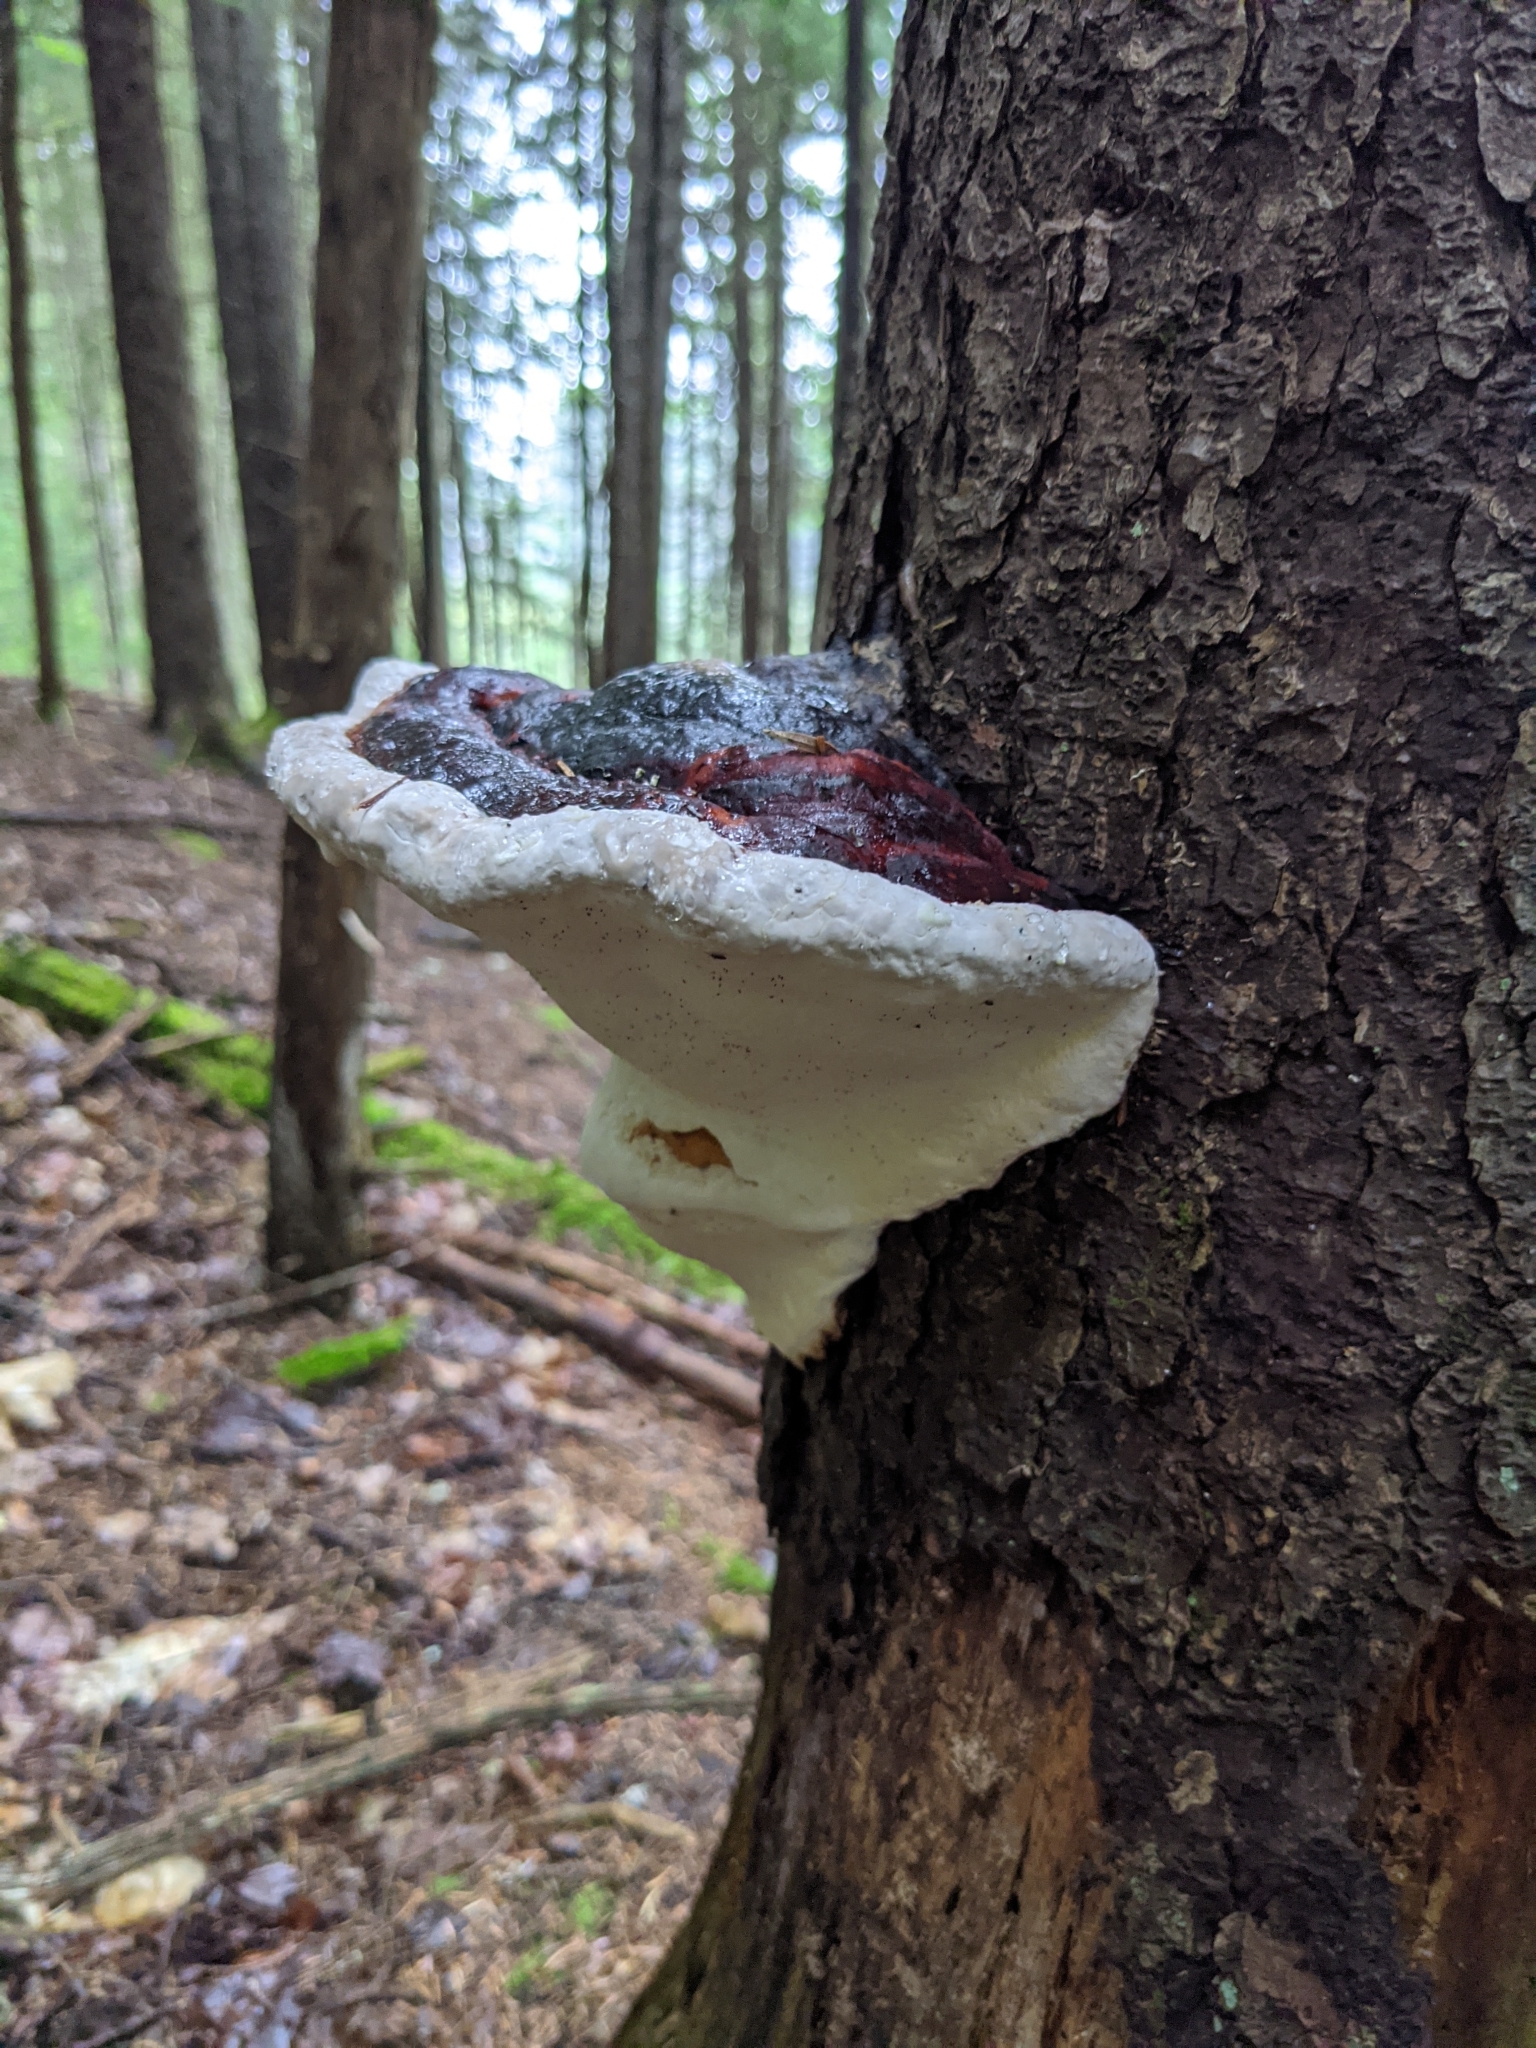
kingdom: Fungi
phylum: Basidiomycota
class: Agaricomycetes
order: Polyporales
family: Fomitopsidaceae
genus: Fomitopsis
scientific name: Fomitopsis mounceae
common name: Northern red belt
